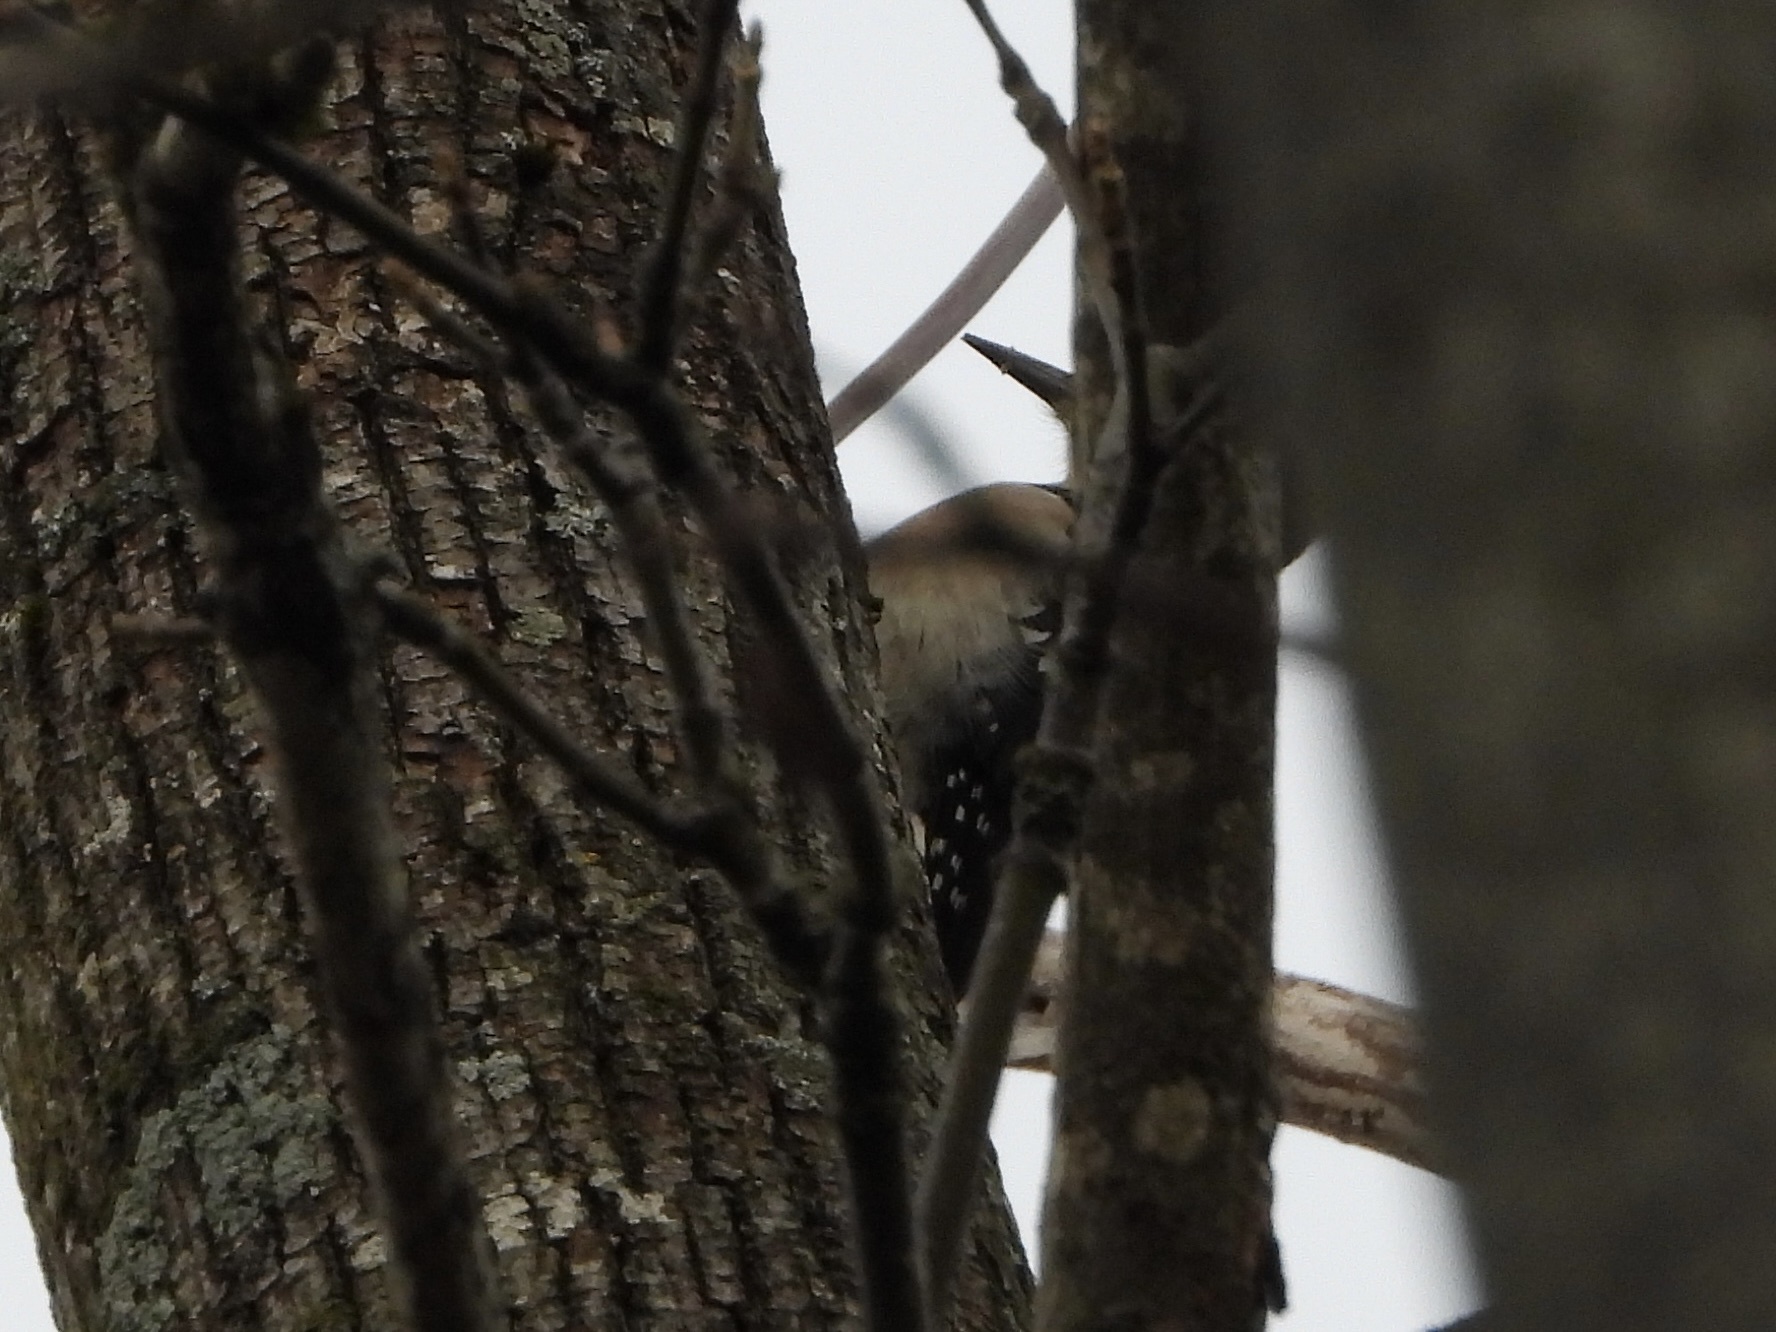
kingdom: Animalia
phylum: Chordata
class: Aves
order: Piciformes
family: Picidae
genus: Leuconotopicus
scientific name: Leuconotopicus villosus
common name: Hairy woodpecker
